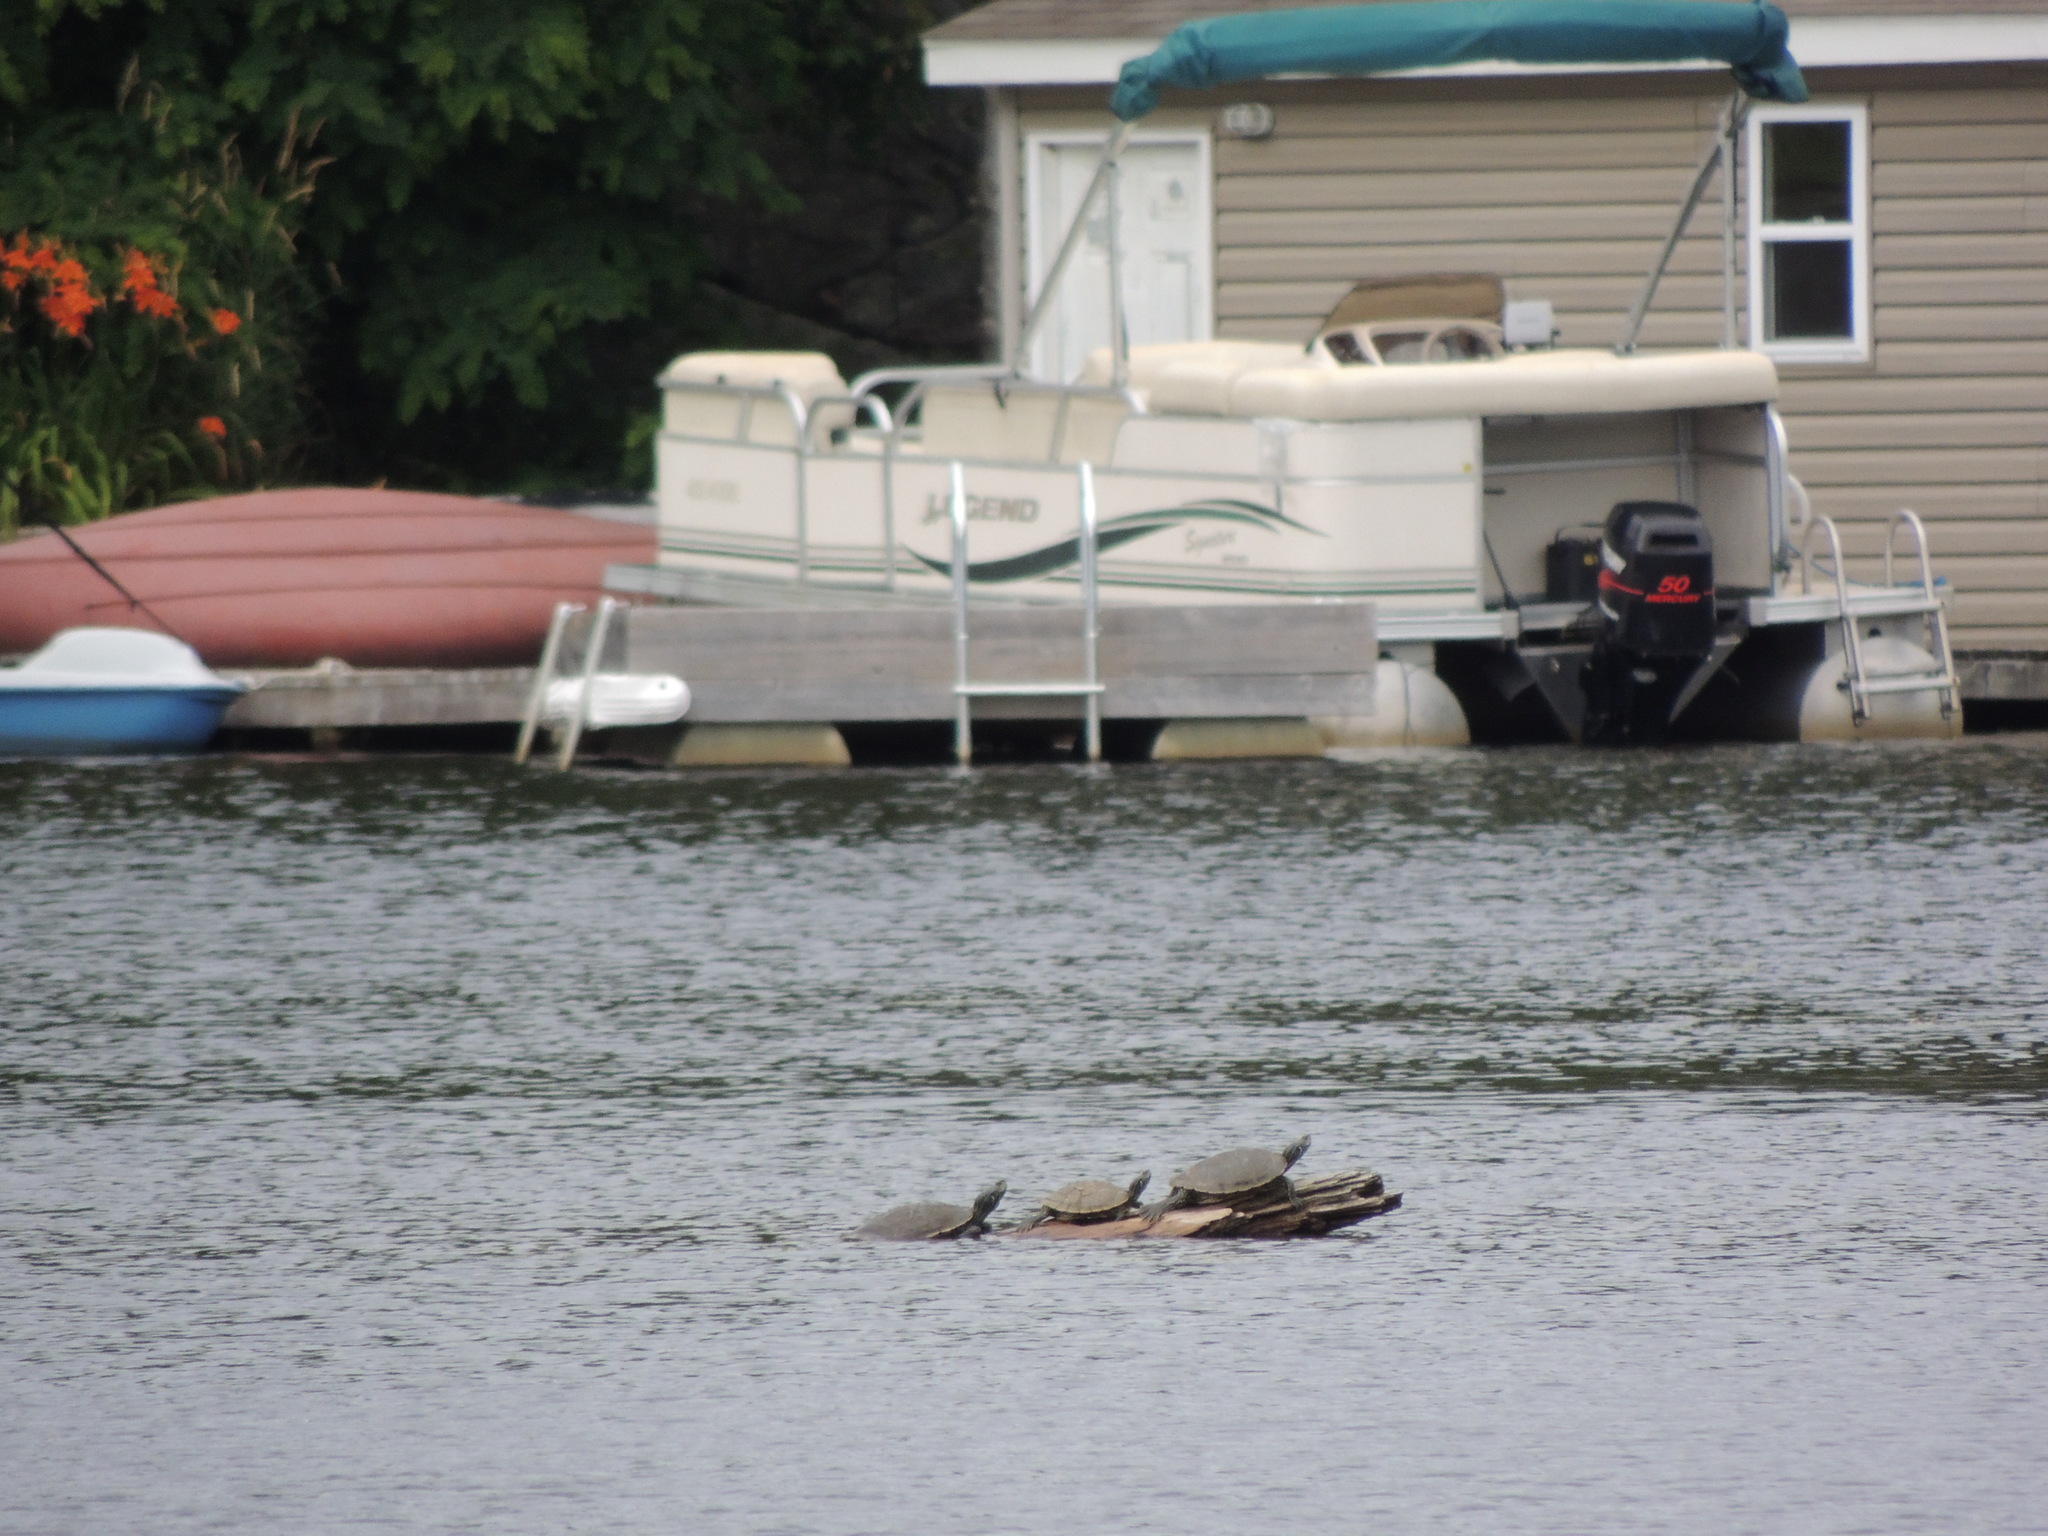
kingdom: Animalia
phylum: Chordata
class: Testudines
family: Emydidae
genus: Graptemys
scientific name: Graptemys geographica
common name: Common map turtle
